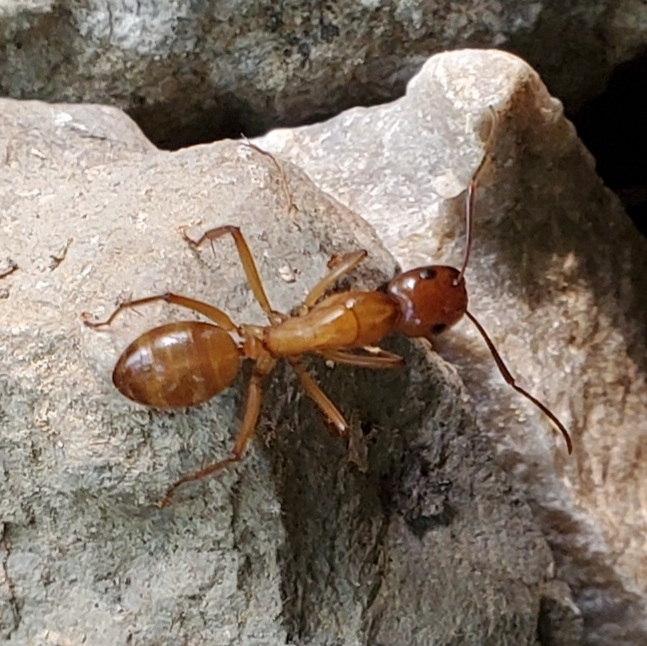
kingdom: Animalia
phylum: Arthropoda
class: Insecta
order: Hymenoptera
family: Formicidae
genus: Camponotus
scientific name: Camponotus castaneus
